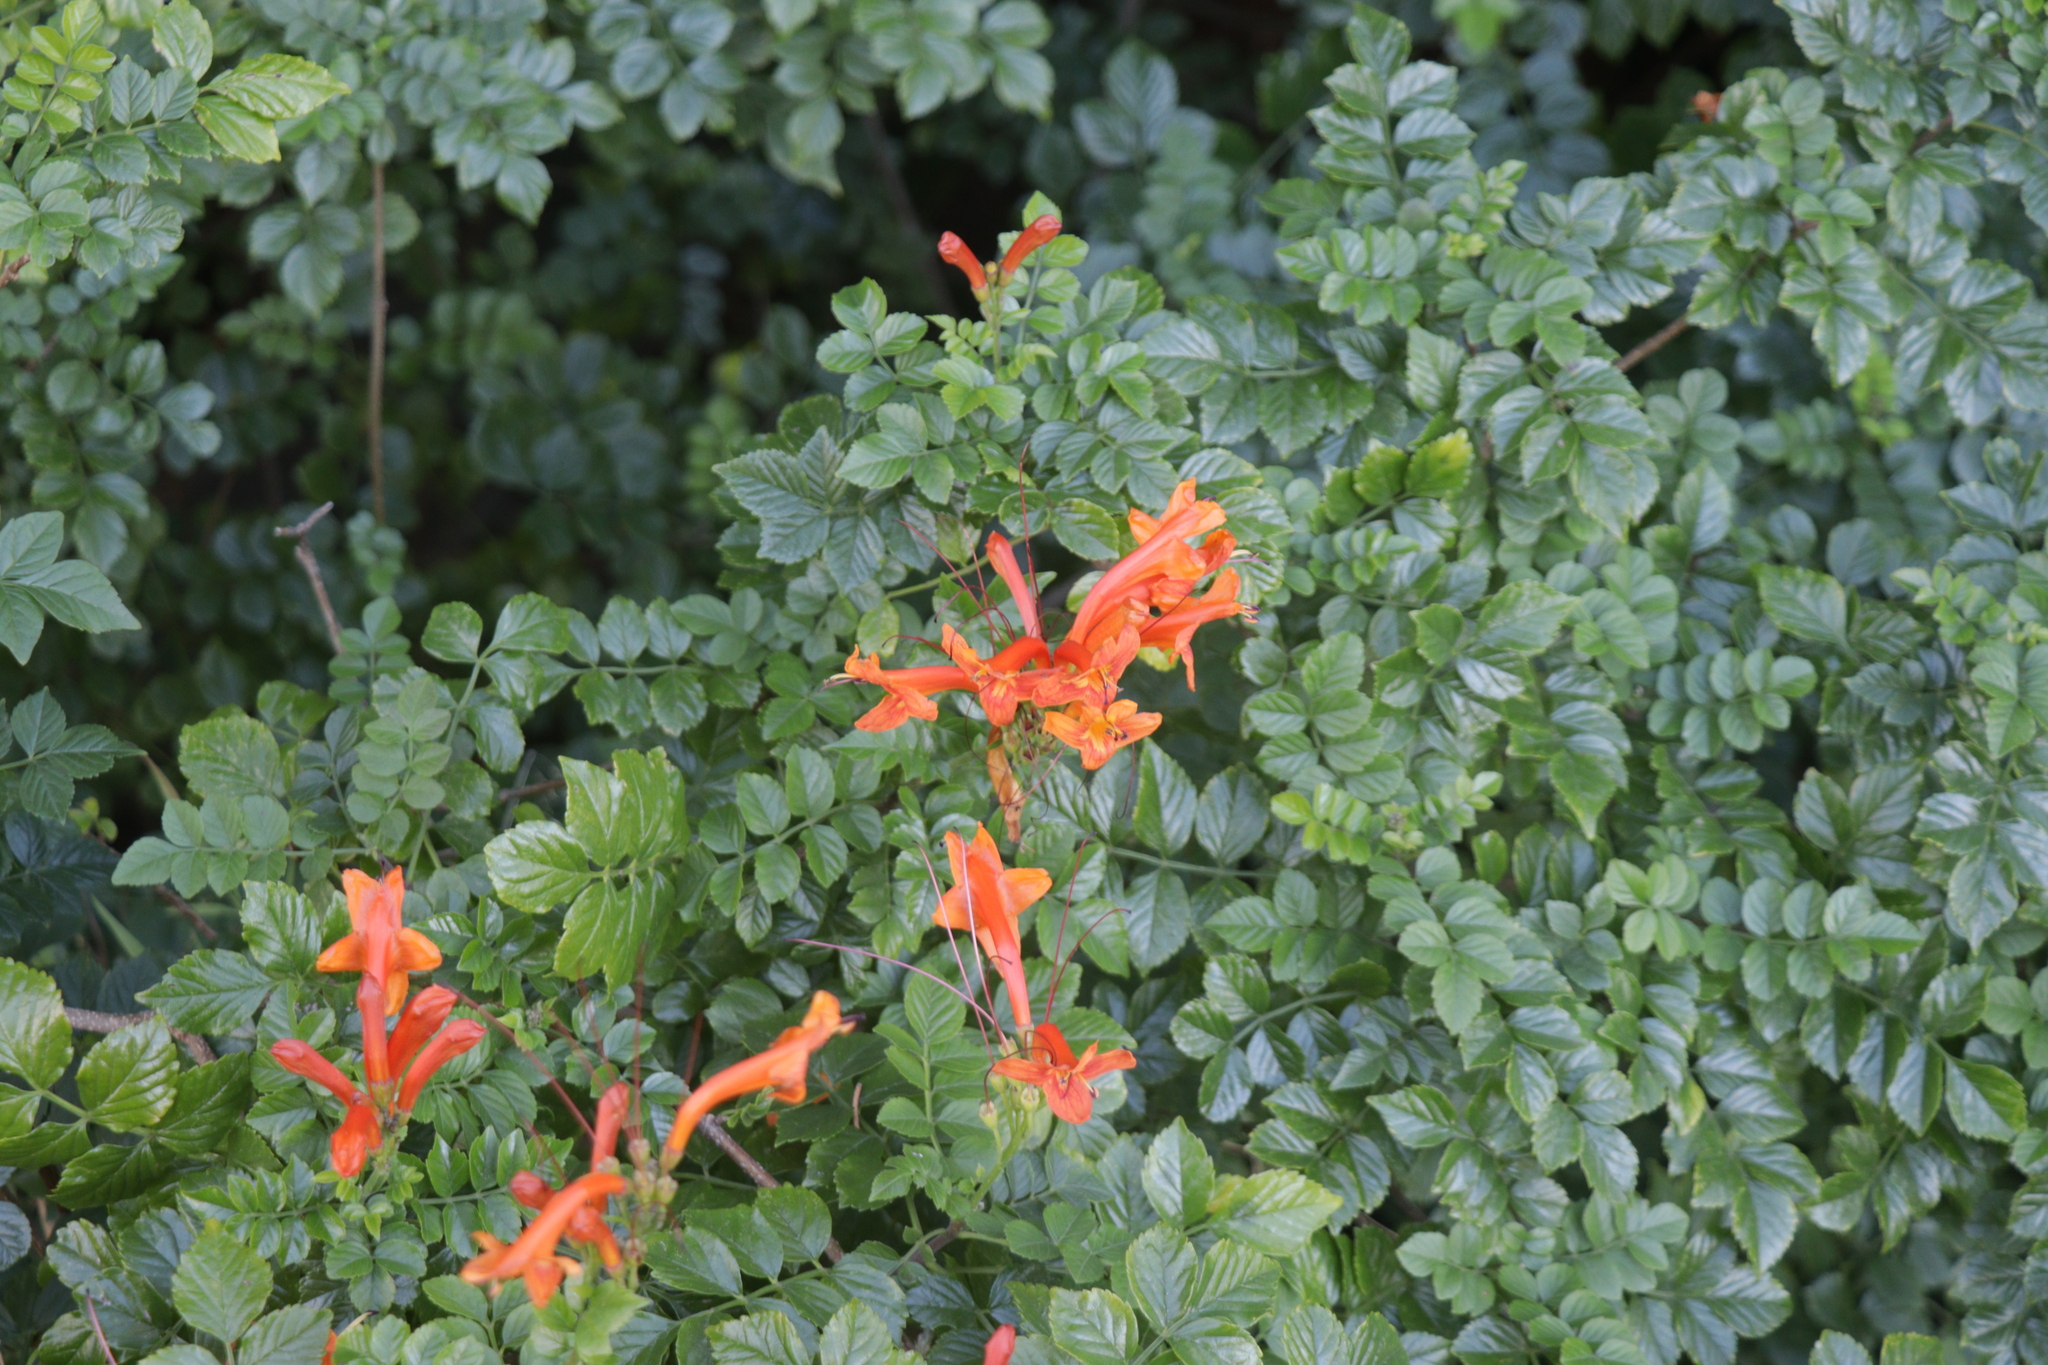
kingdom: Plantae
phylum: Tracheophyta
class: Magnoliopsida
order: Lamiales
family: Bignoniaceae
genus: Tecomaria
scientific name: Tecomaria capensis
